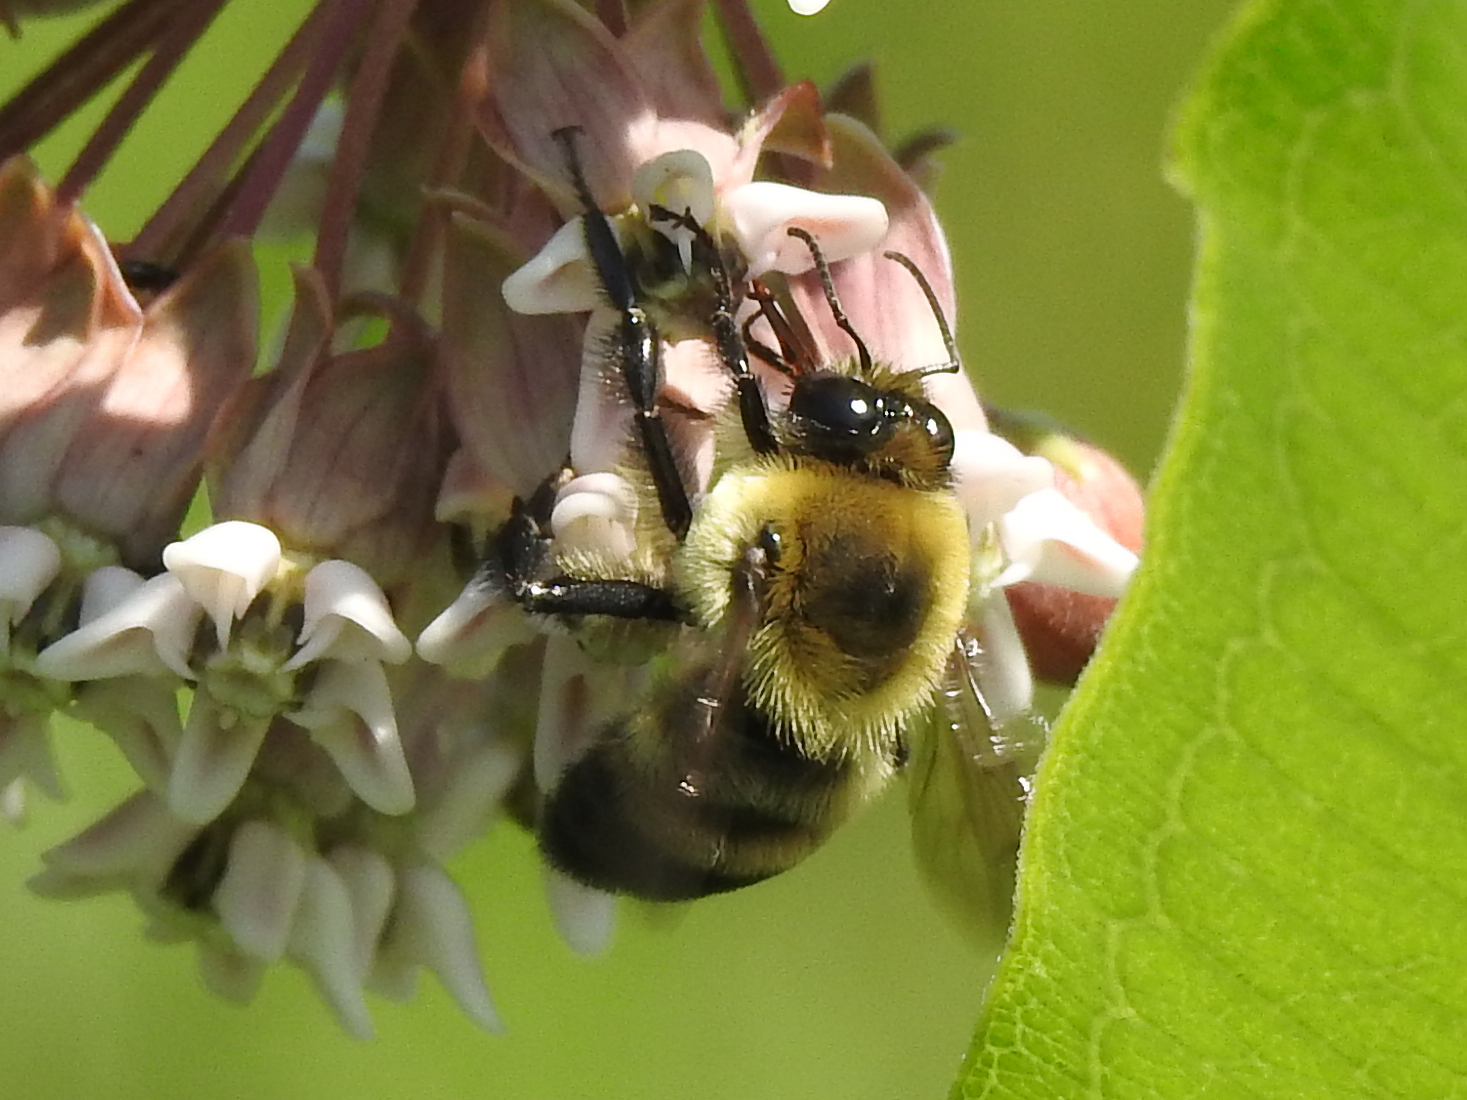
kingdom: Animalia
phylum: Arthropoda
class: Insecta
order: Hymenoptera
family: Apidae
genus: Bombus
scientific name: Bombus griseocollis
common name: Brown-belted bumble bee
